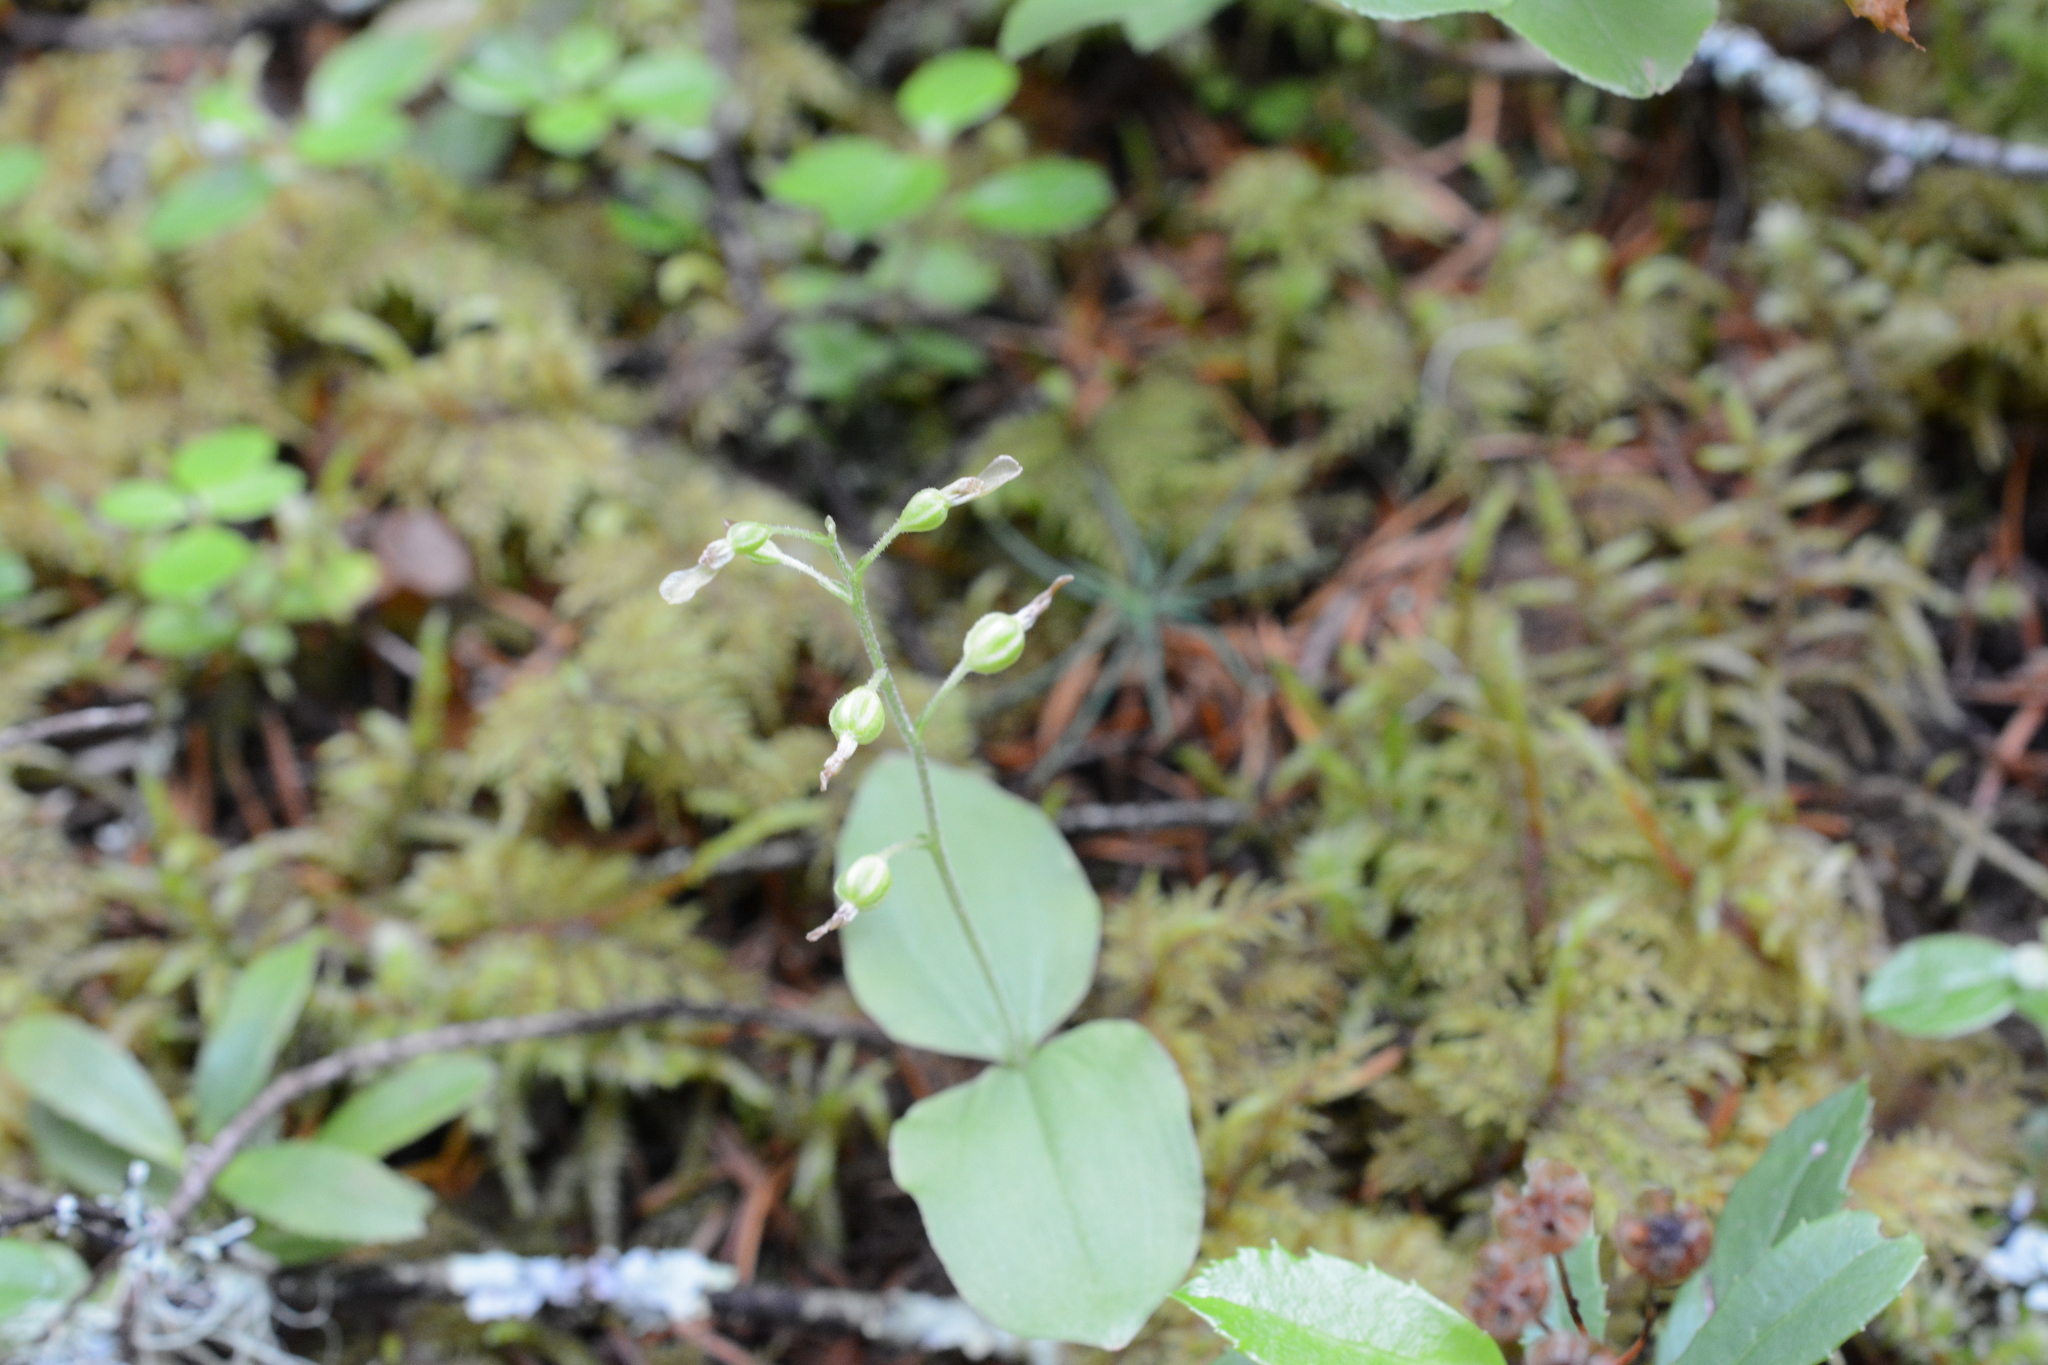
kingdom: Plantae
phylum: Tracheophyta
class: Liliopsida
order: Asparagales
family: Orchidaceae
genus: Neottia
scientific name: Neottia banksiana
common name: Northwestern twayblade
